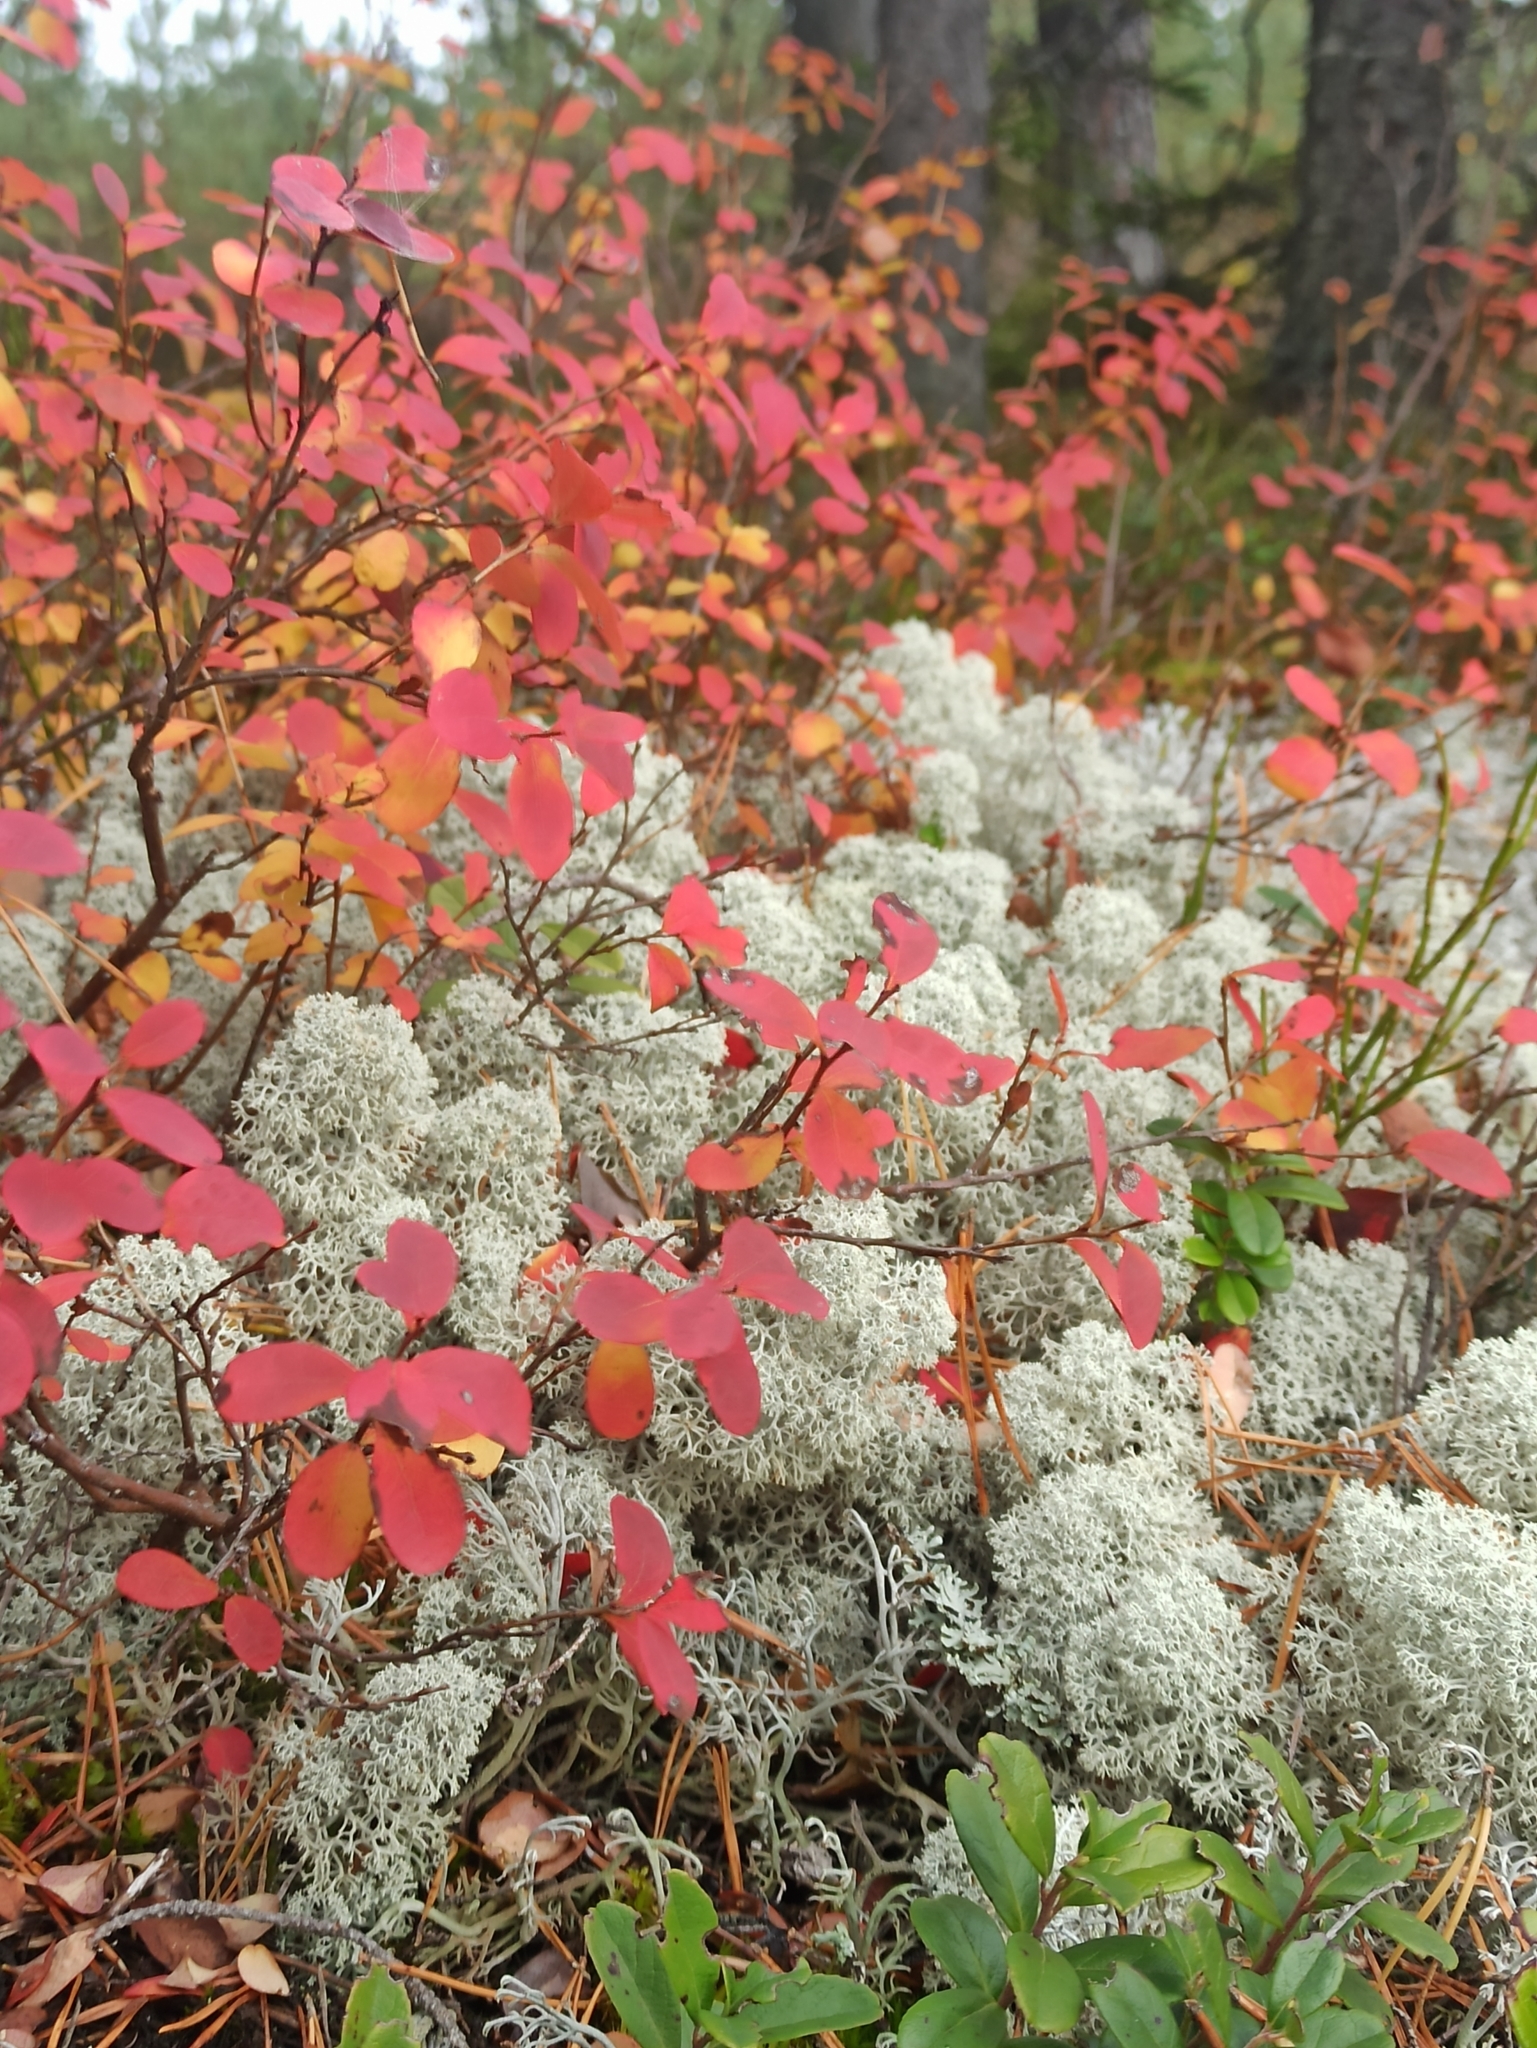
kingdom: Plantae
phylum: Tracheophyta
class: Magnoliopsida
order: Ericales
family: Ericaceae
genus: Vaccinium
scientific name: Vaccinium uliginosum
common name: Bog bilberry
